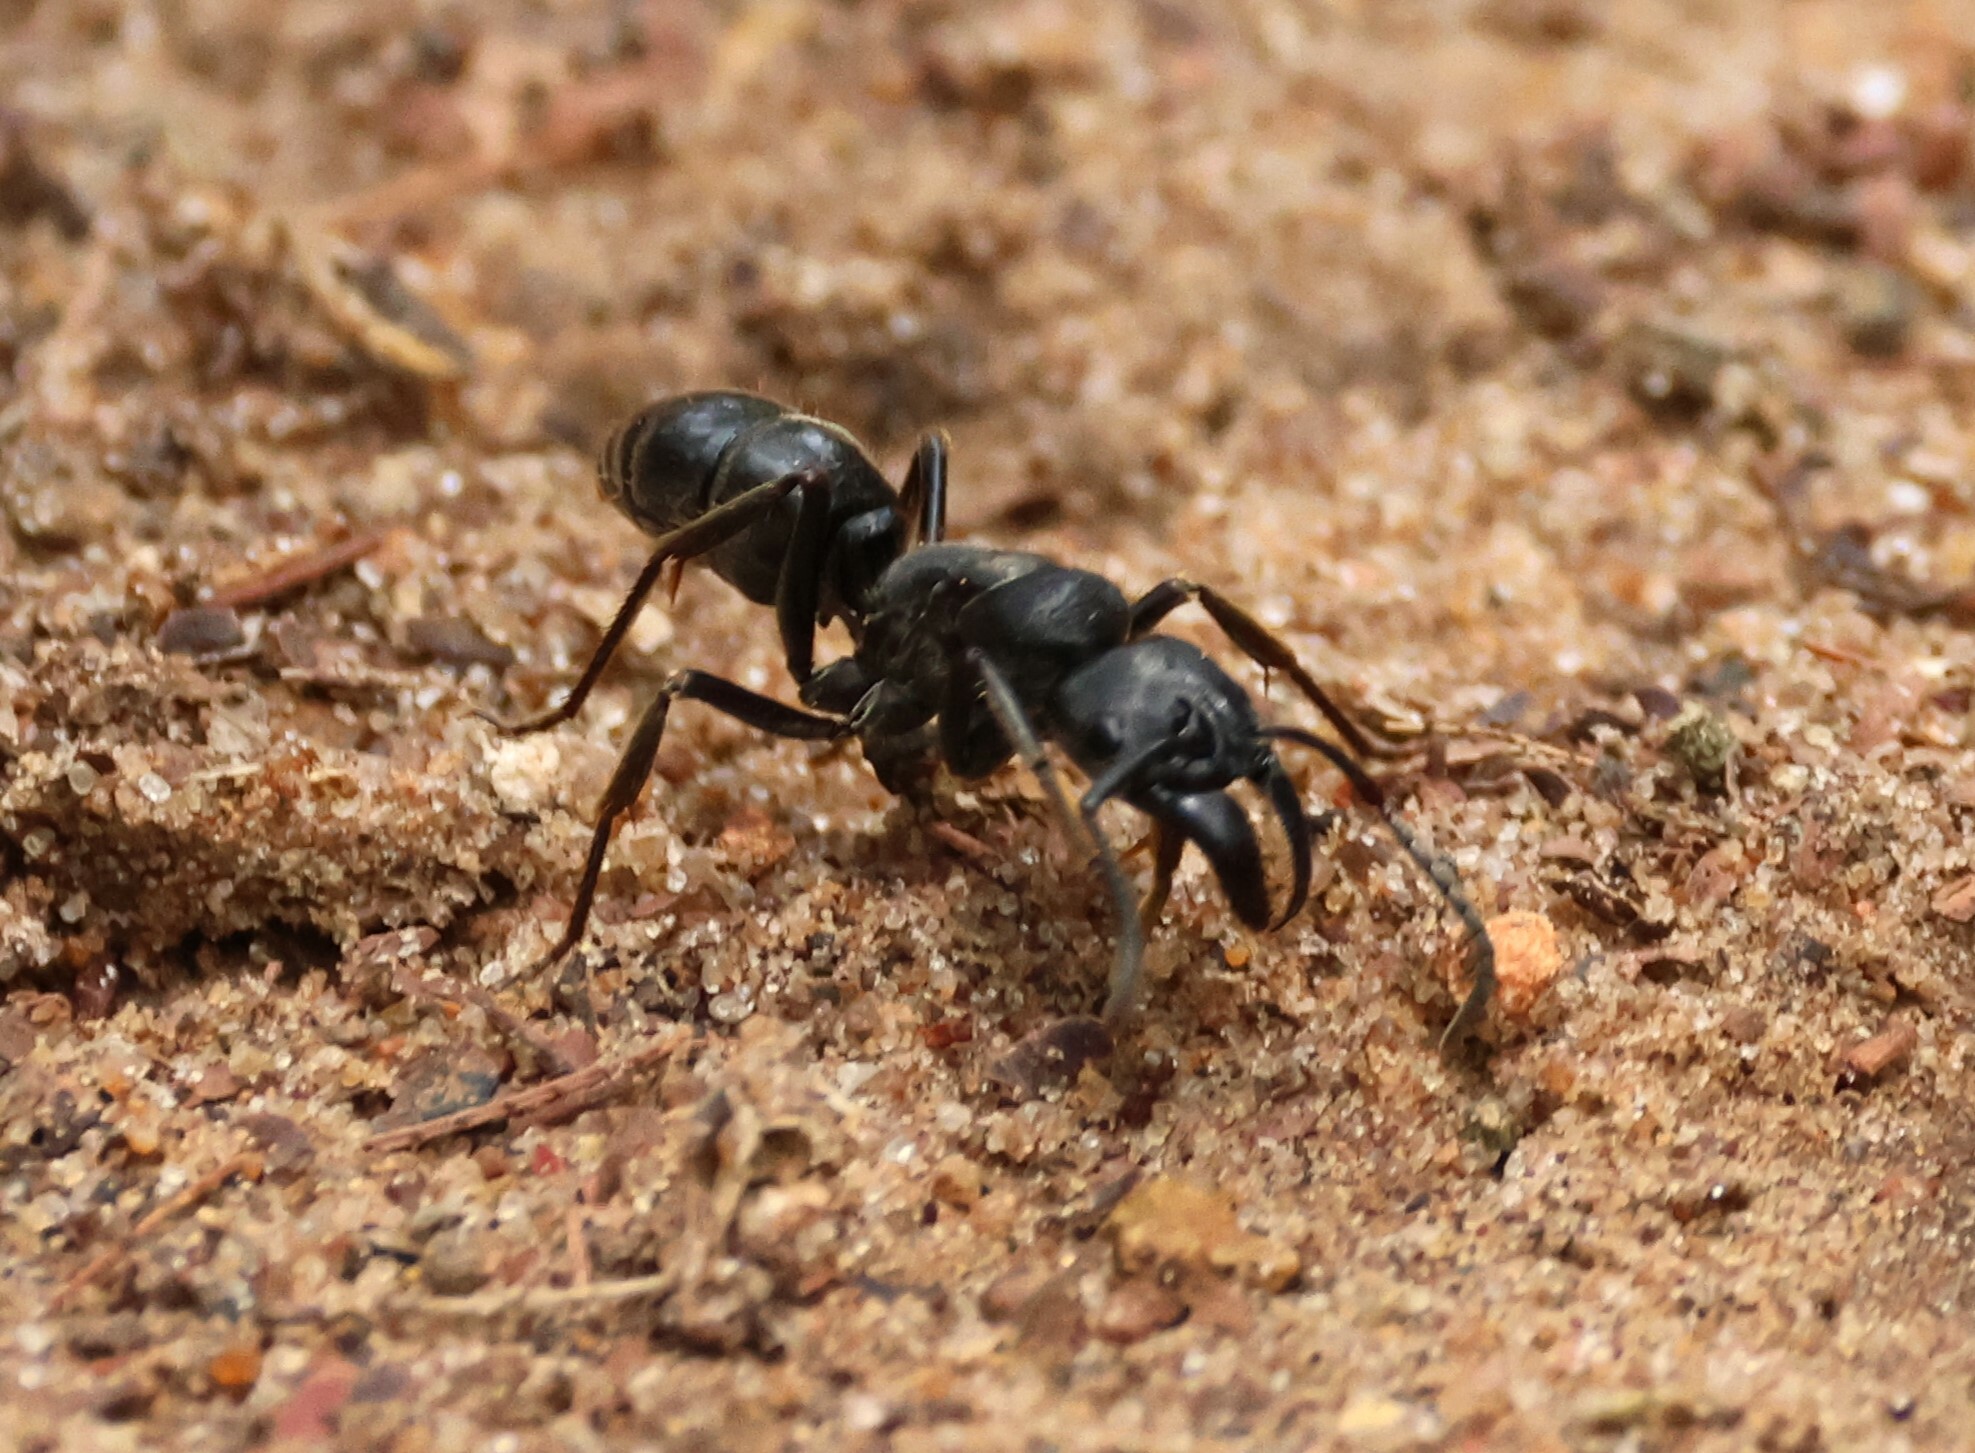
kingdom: Animalia
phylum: Arthropoda
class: Insecta
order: Hymenoptera
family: Formicidae
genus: Paltothyreus
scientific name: Paltothyreus tarsatus
